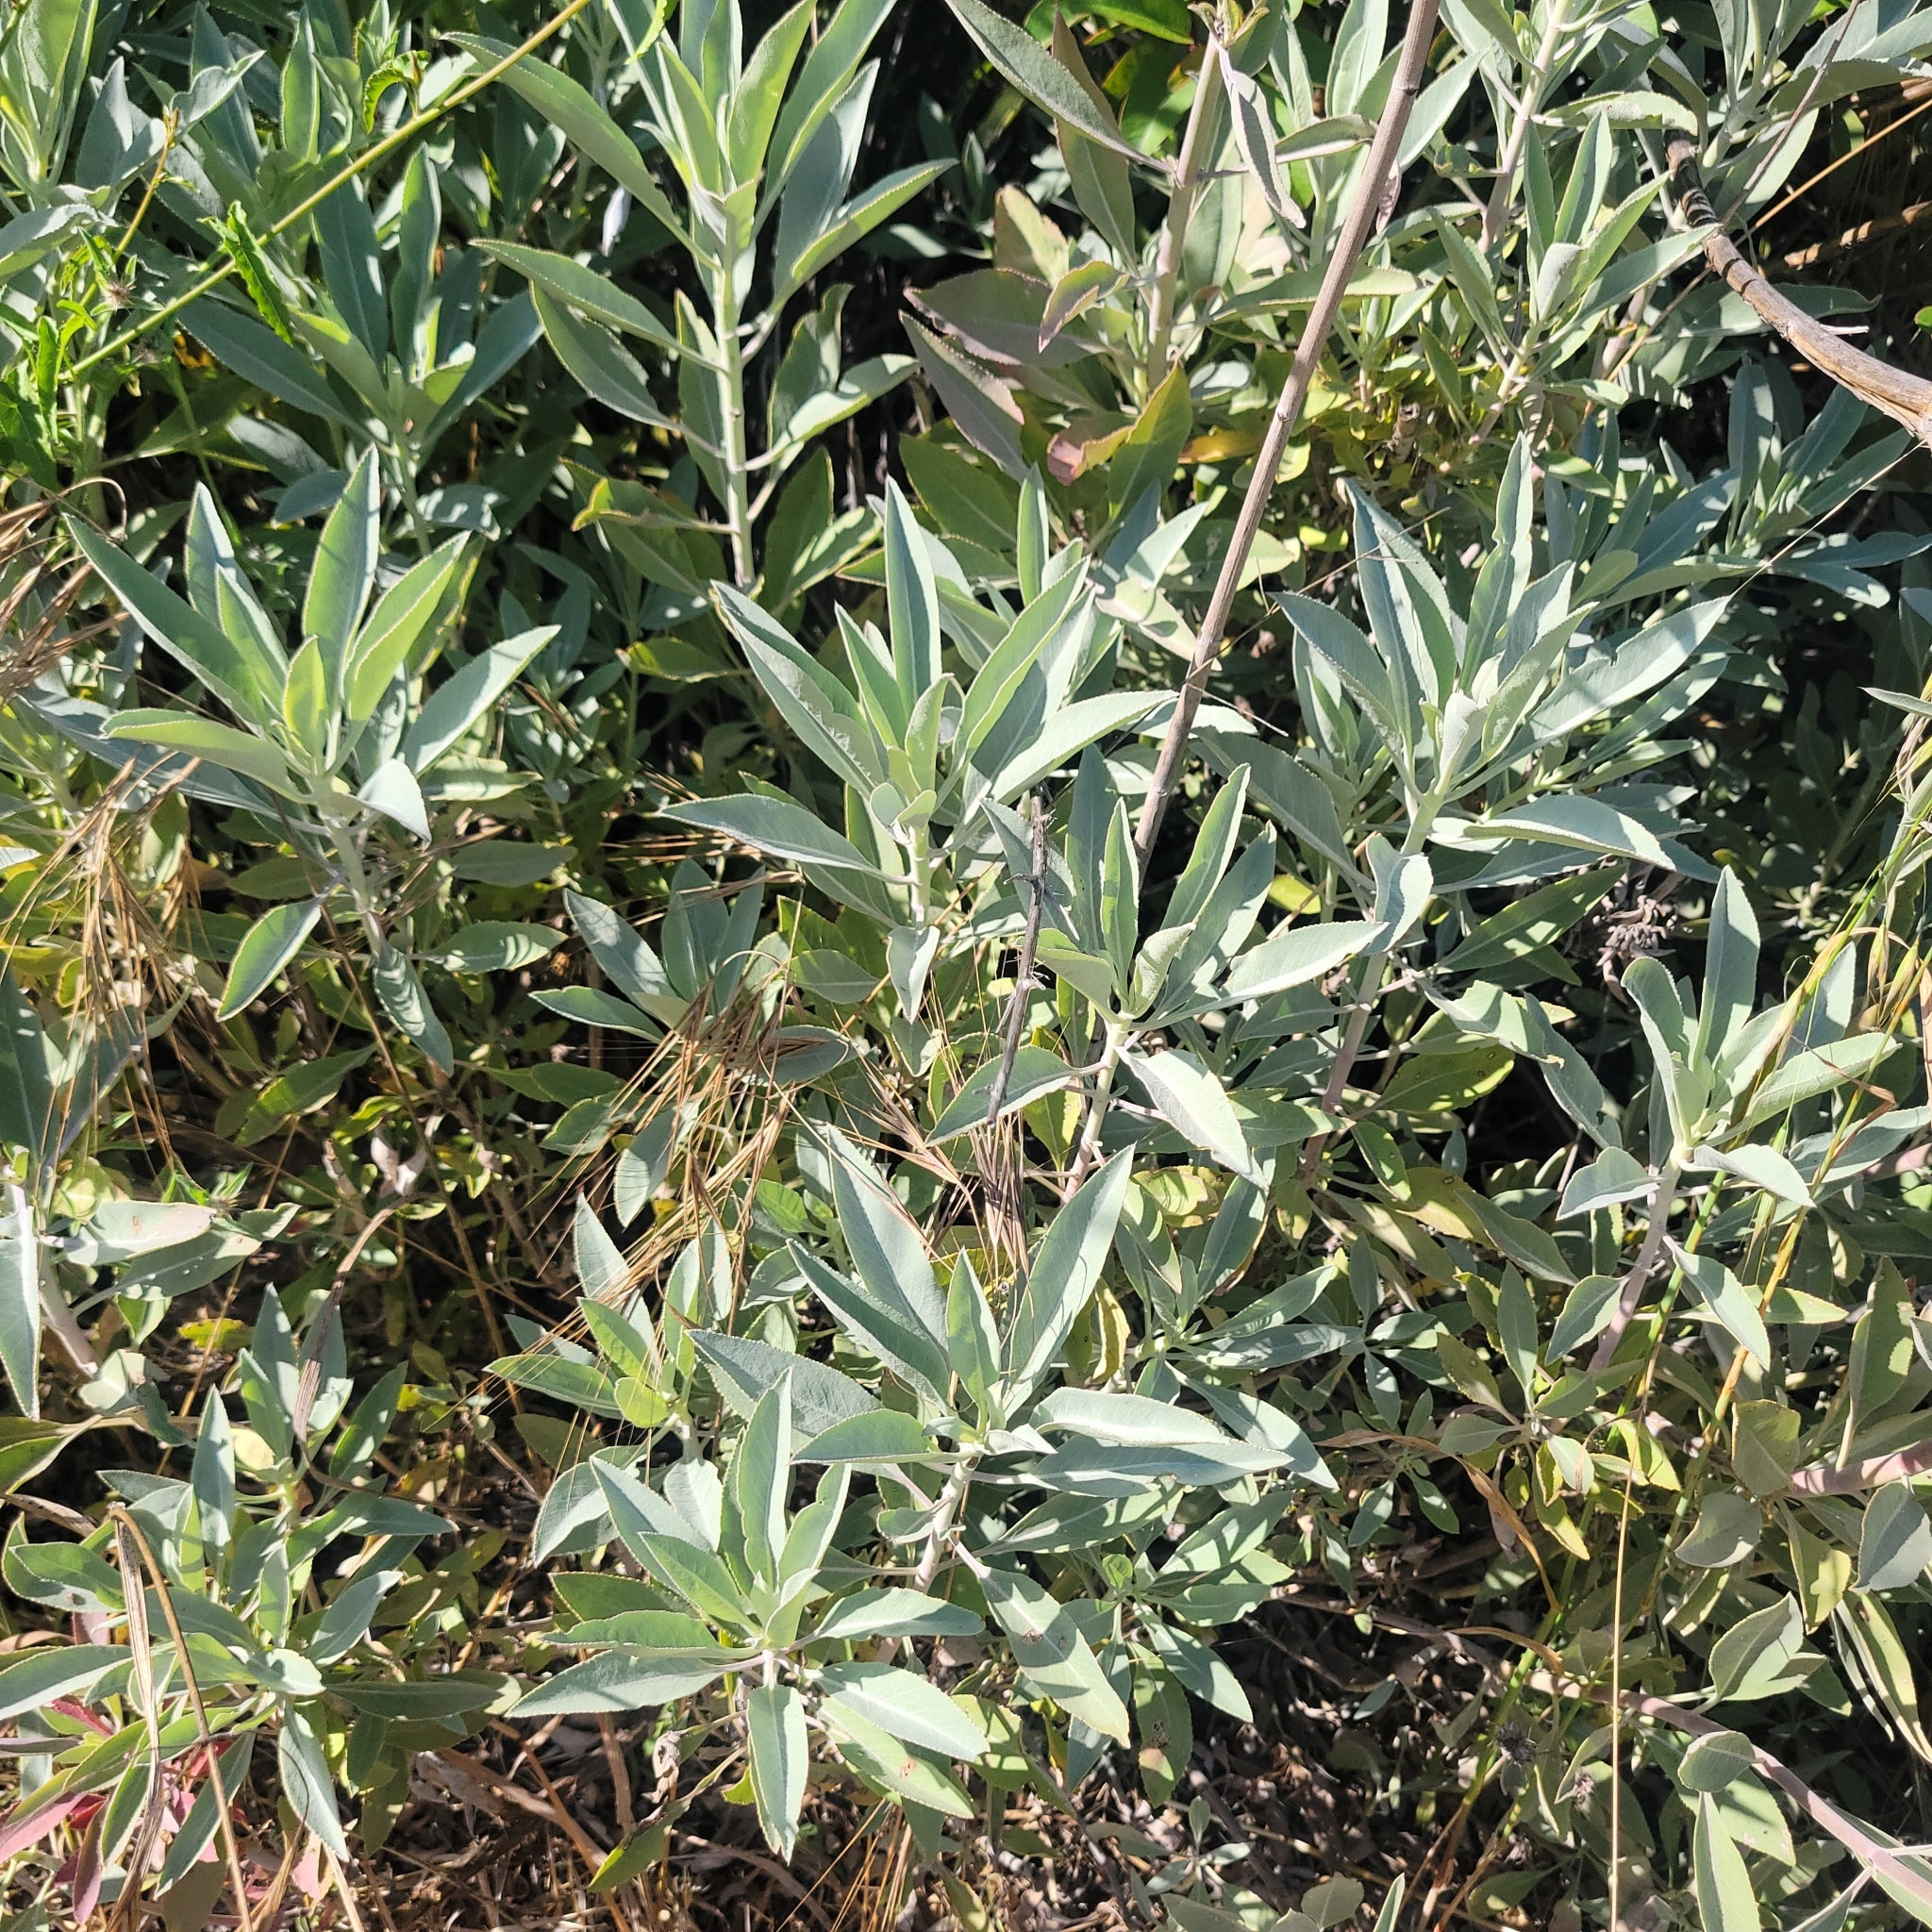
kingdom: Plantae
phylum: Tracheophyta
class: Magnoliopsida
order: Lamiales
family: Lamiaceae
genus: Salvia
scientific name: Salvia apiana
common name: White sage
